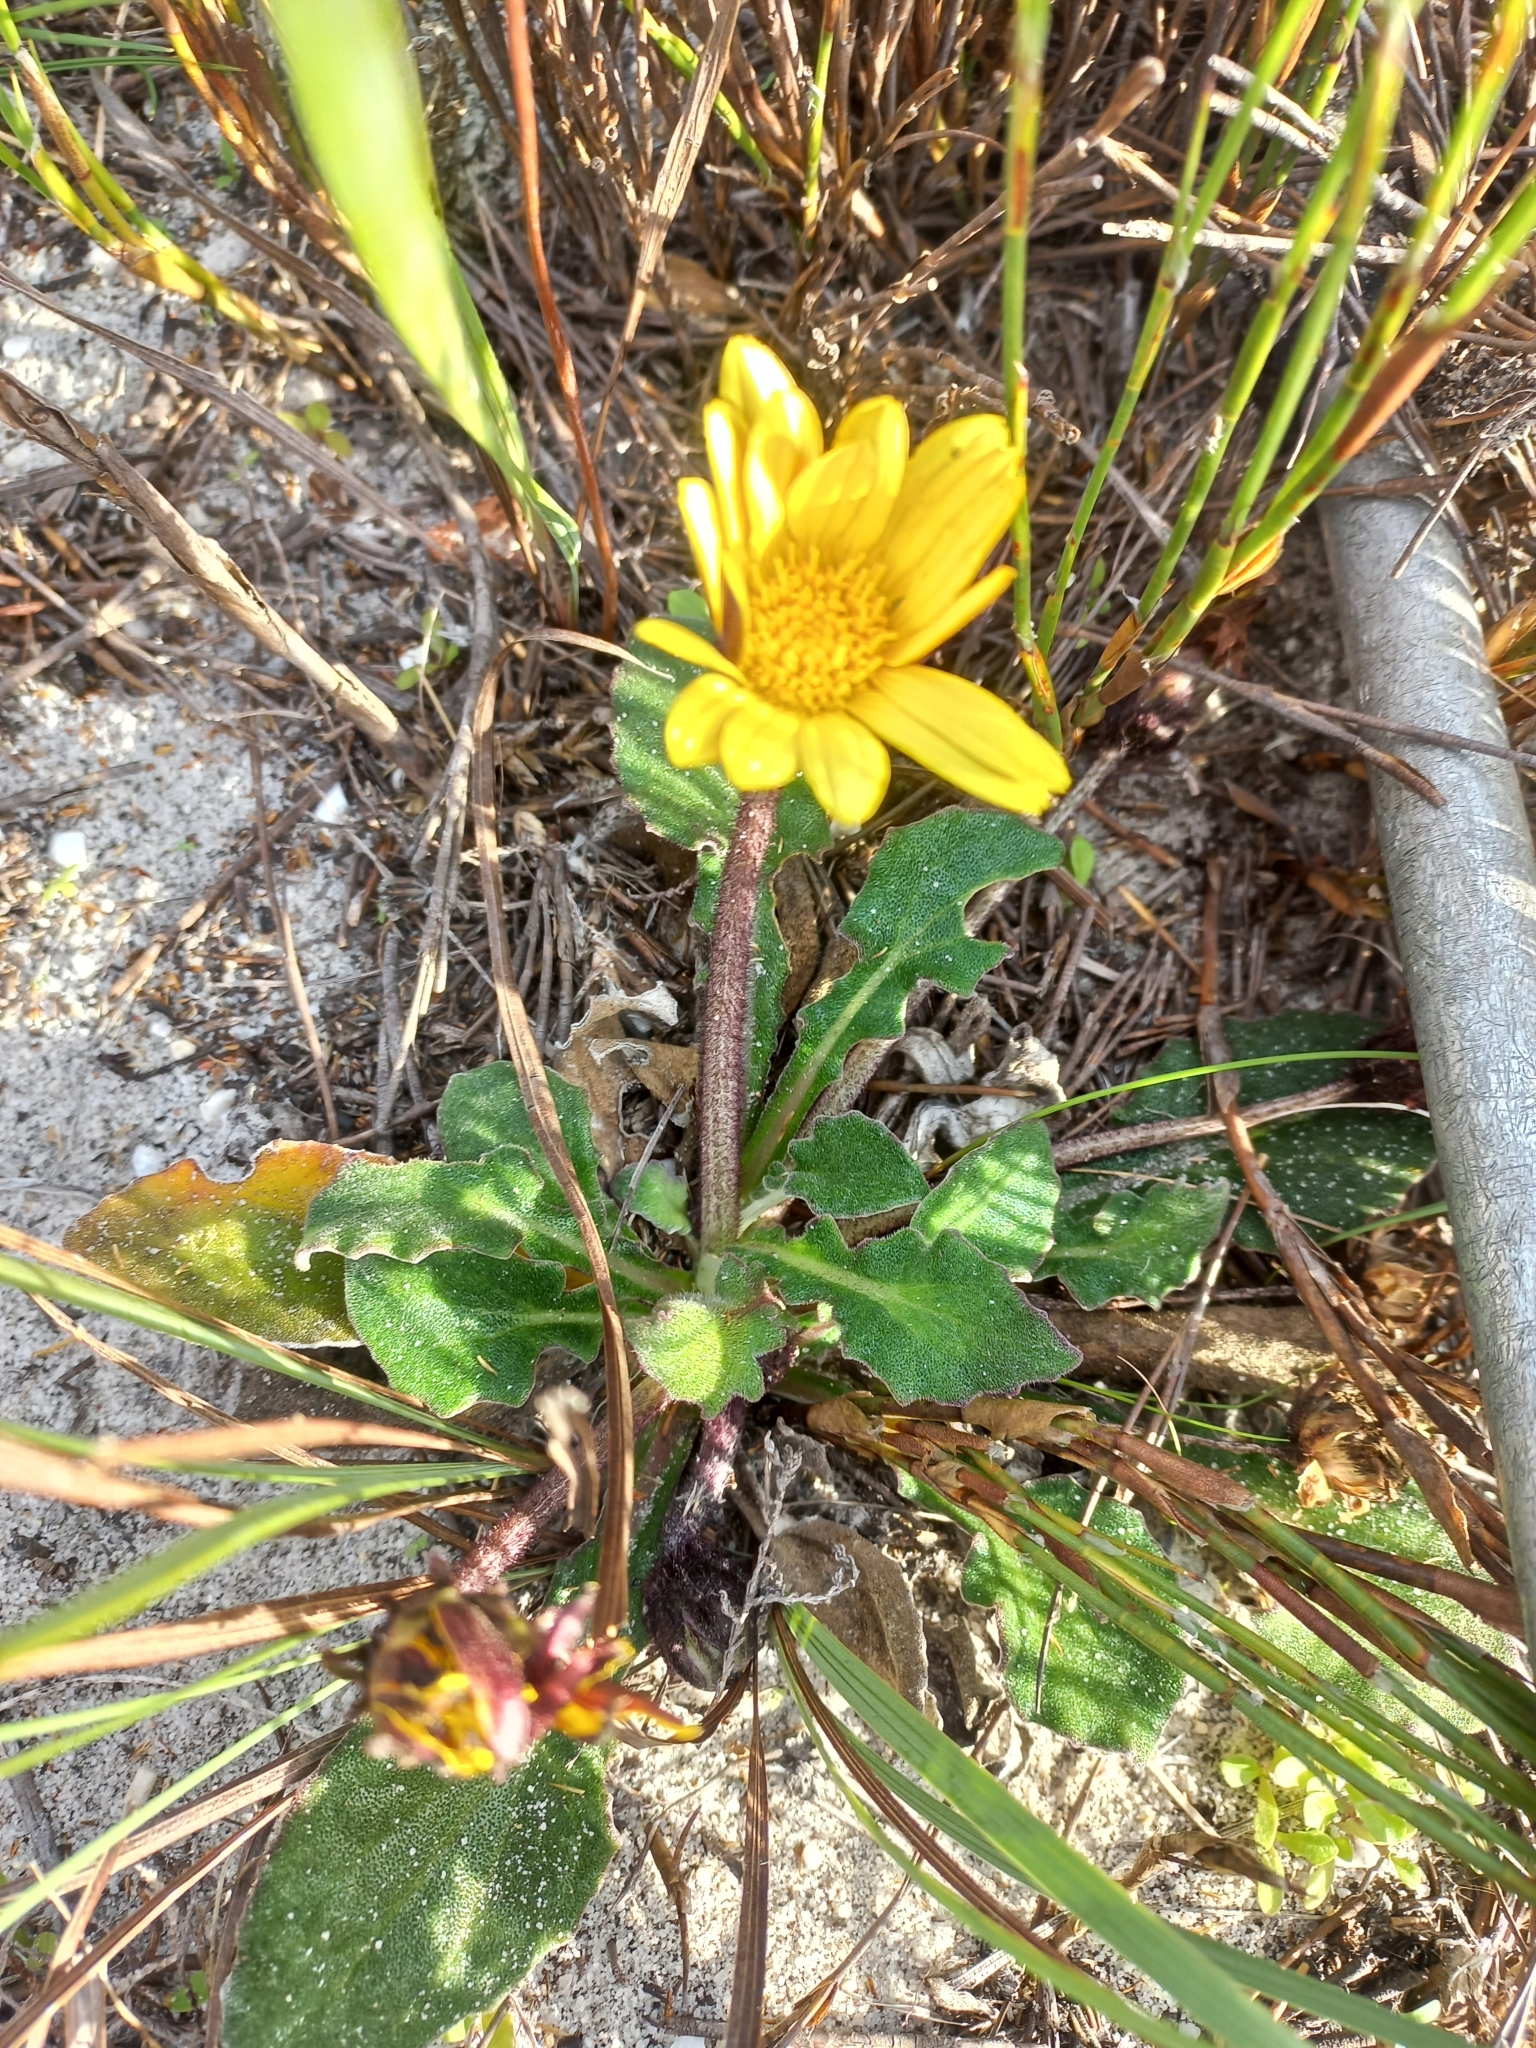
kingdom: Plantae
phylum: Tracheophyta
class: Magnoliopsida
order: Asterales
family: Asteraceae
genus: Haplocarpha
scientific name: Haplocarpha lanata
